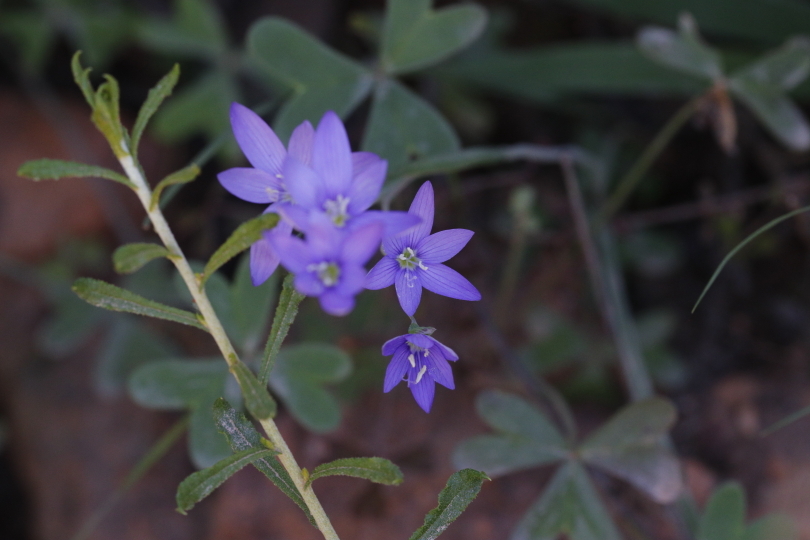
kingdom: Plantae
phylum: Tracheophyta
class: Liliopsida
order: Asparagales
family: Iridaceae
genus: Geissorhiza
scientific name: Geissorhiza aspera
